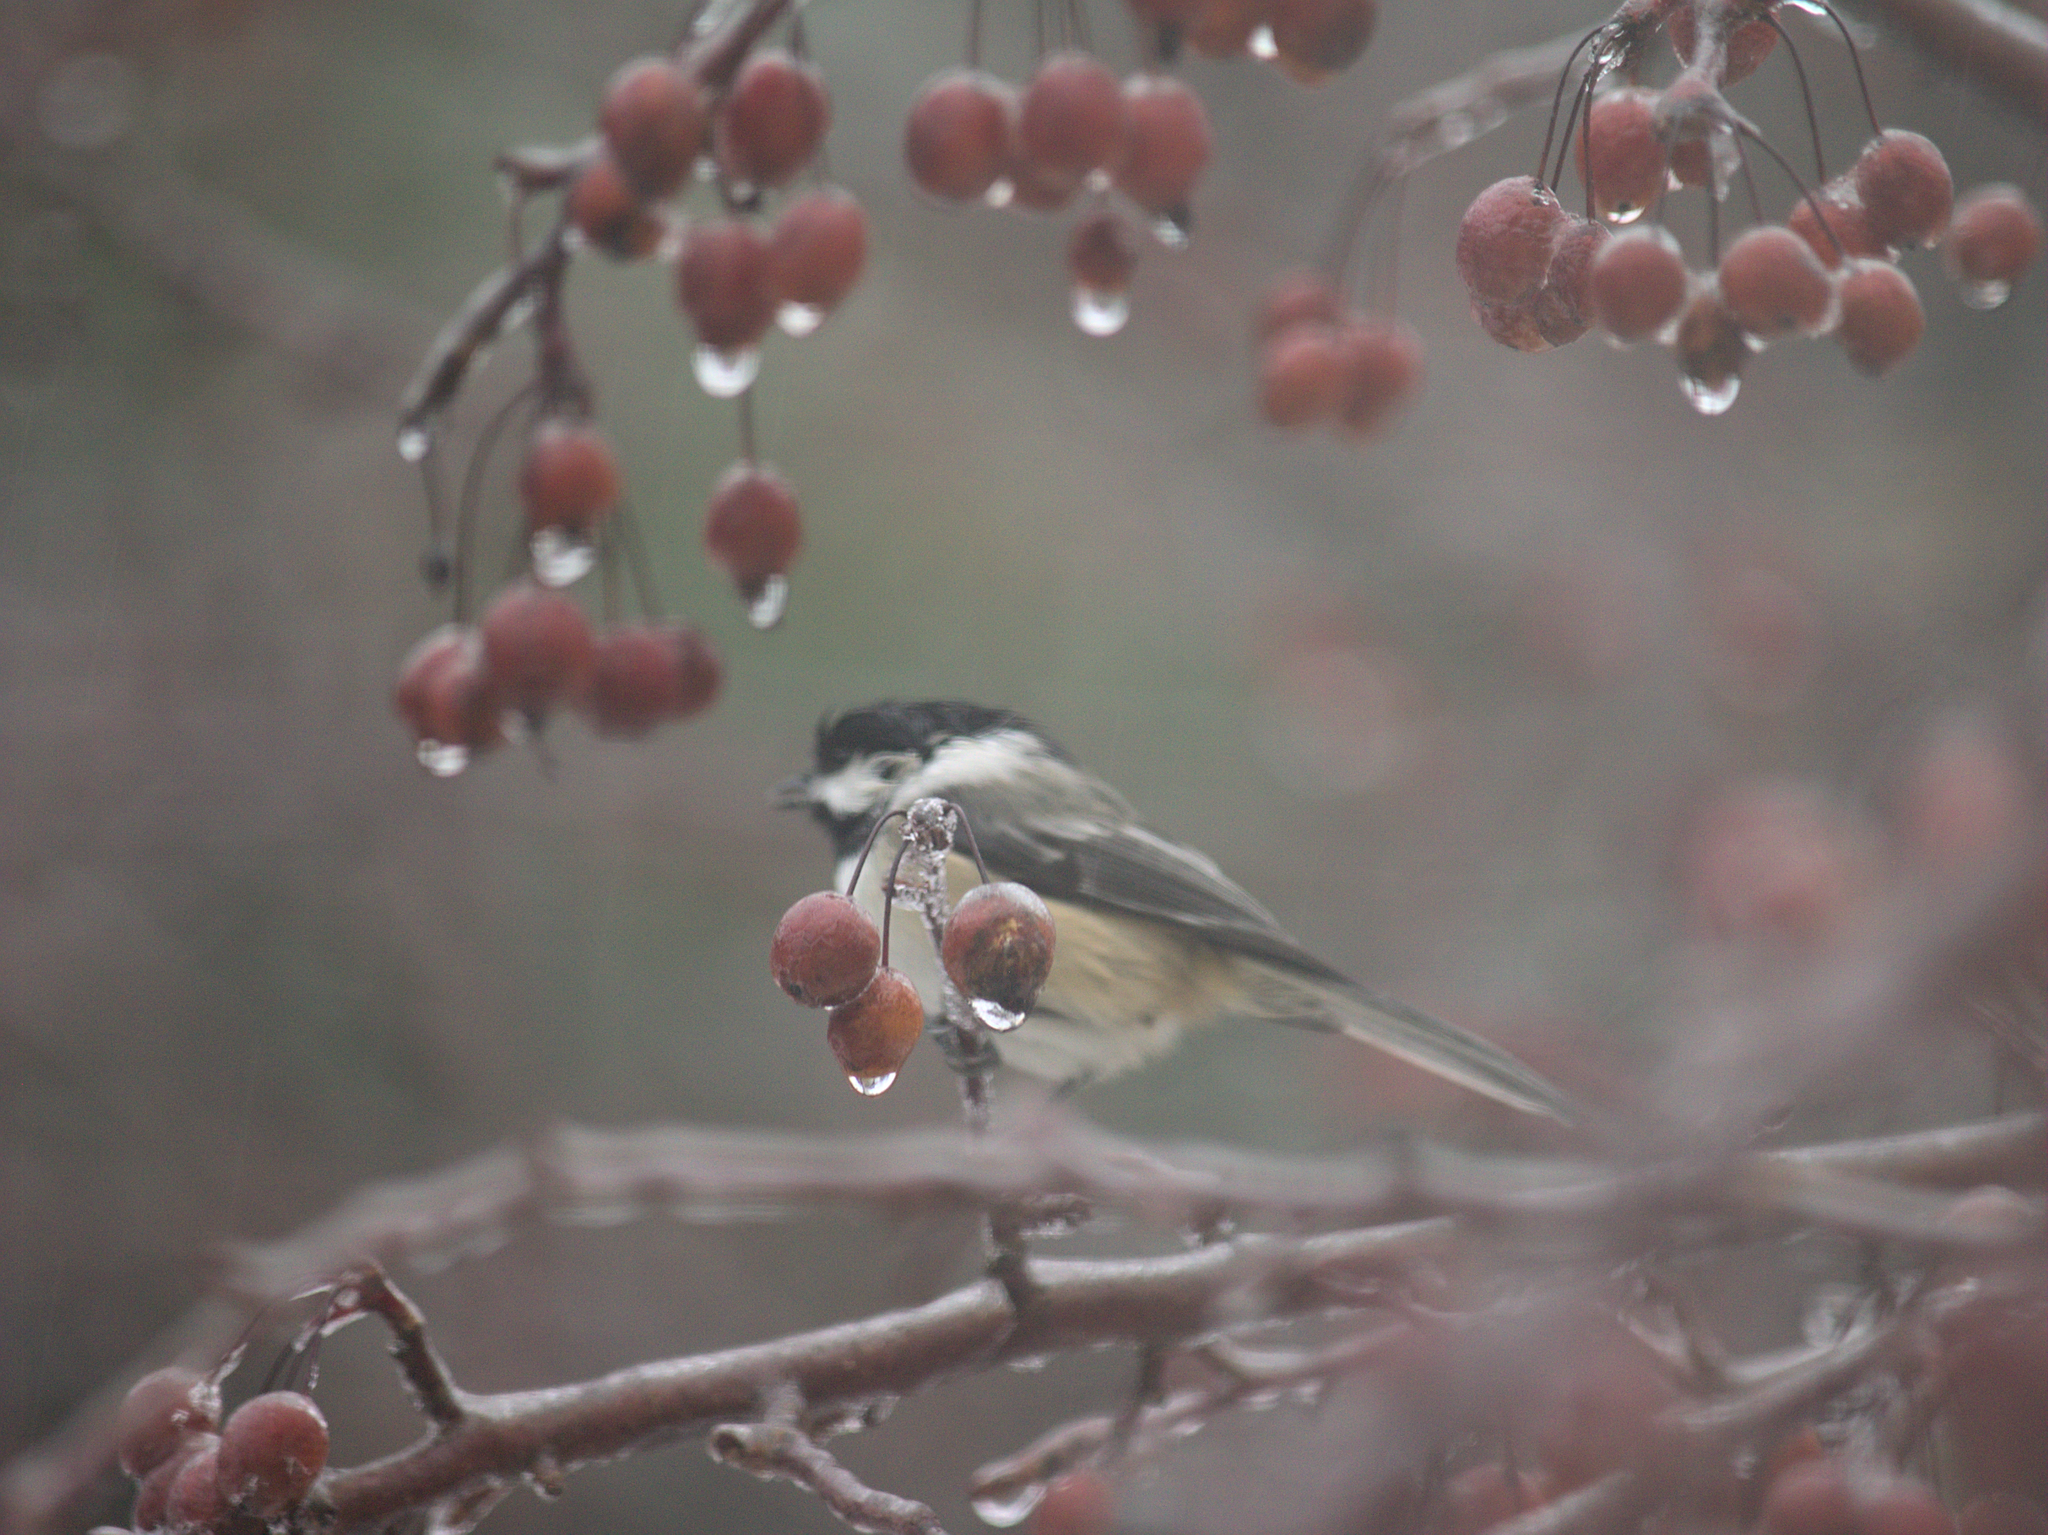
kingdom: Animalia
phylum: Chordata
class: Aves
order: Passeriformes
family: Paridae
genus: Poecile
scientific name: Poecile atricapillus
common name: Black-capped chickadee
